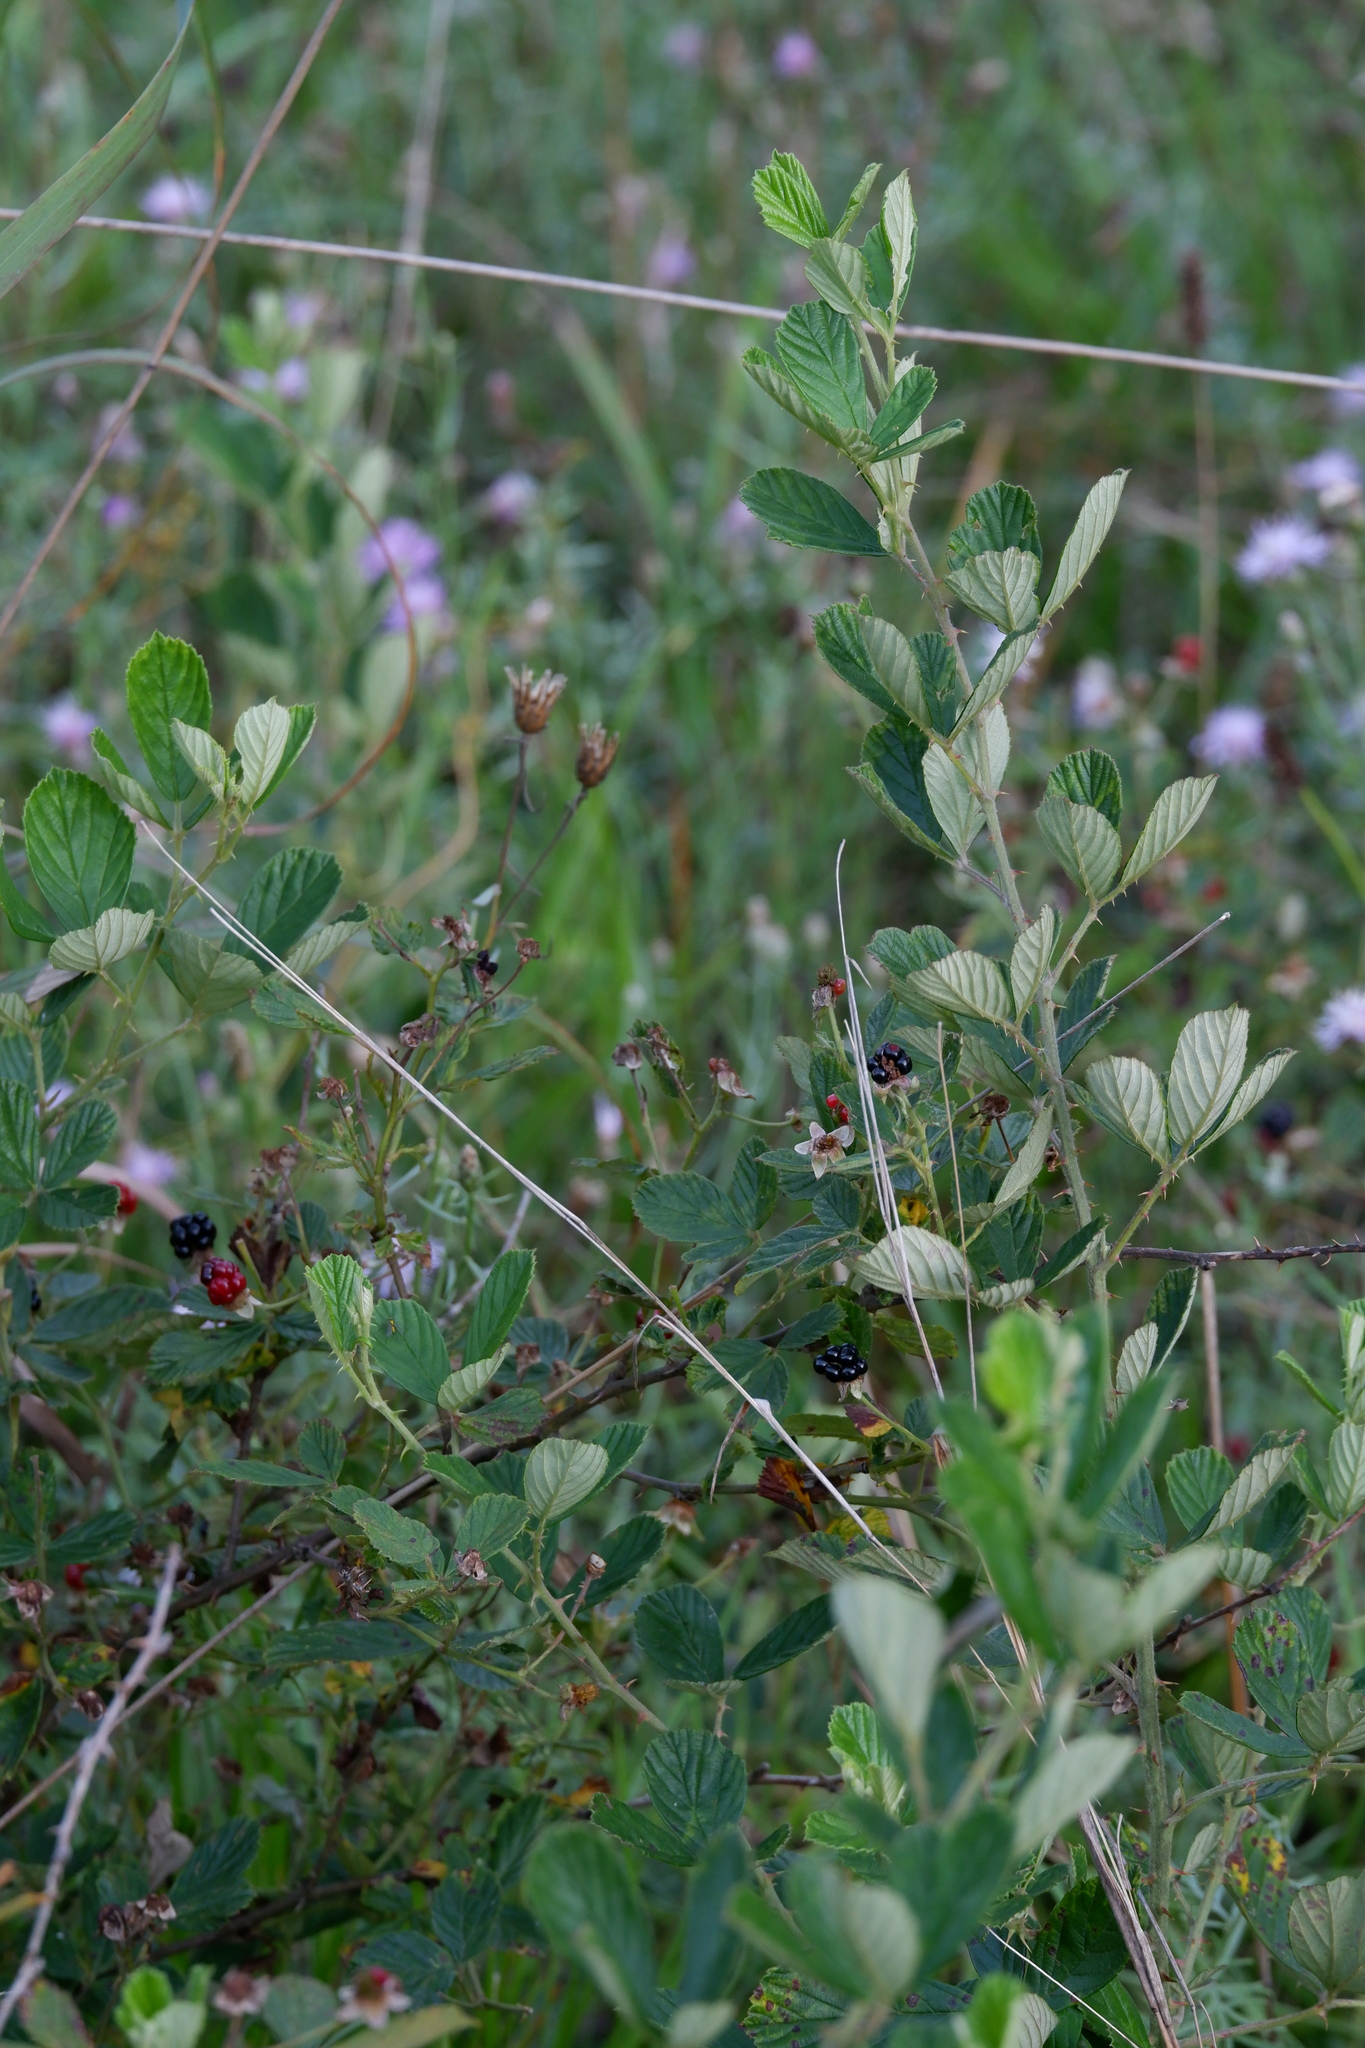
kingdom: Plantae
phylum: Tracheophyta
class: Magnoliopsida
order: Rosales
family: Rosaceae
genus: Rubus
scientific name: Rubus cuneifolius
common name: American bramble
